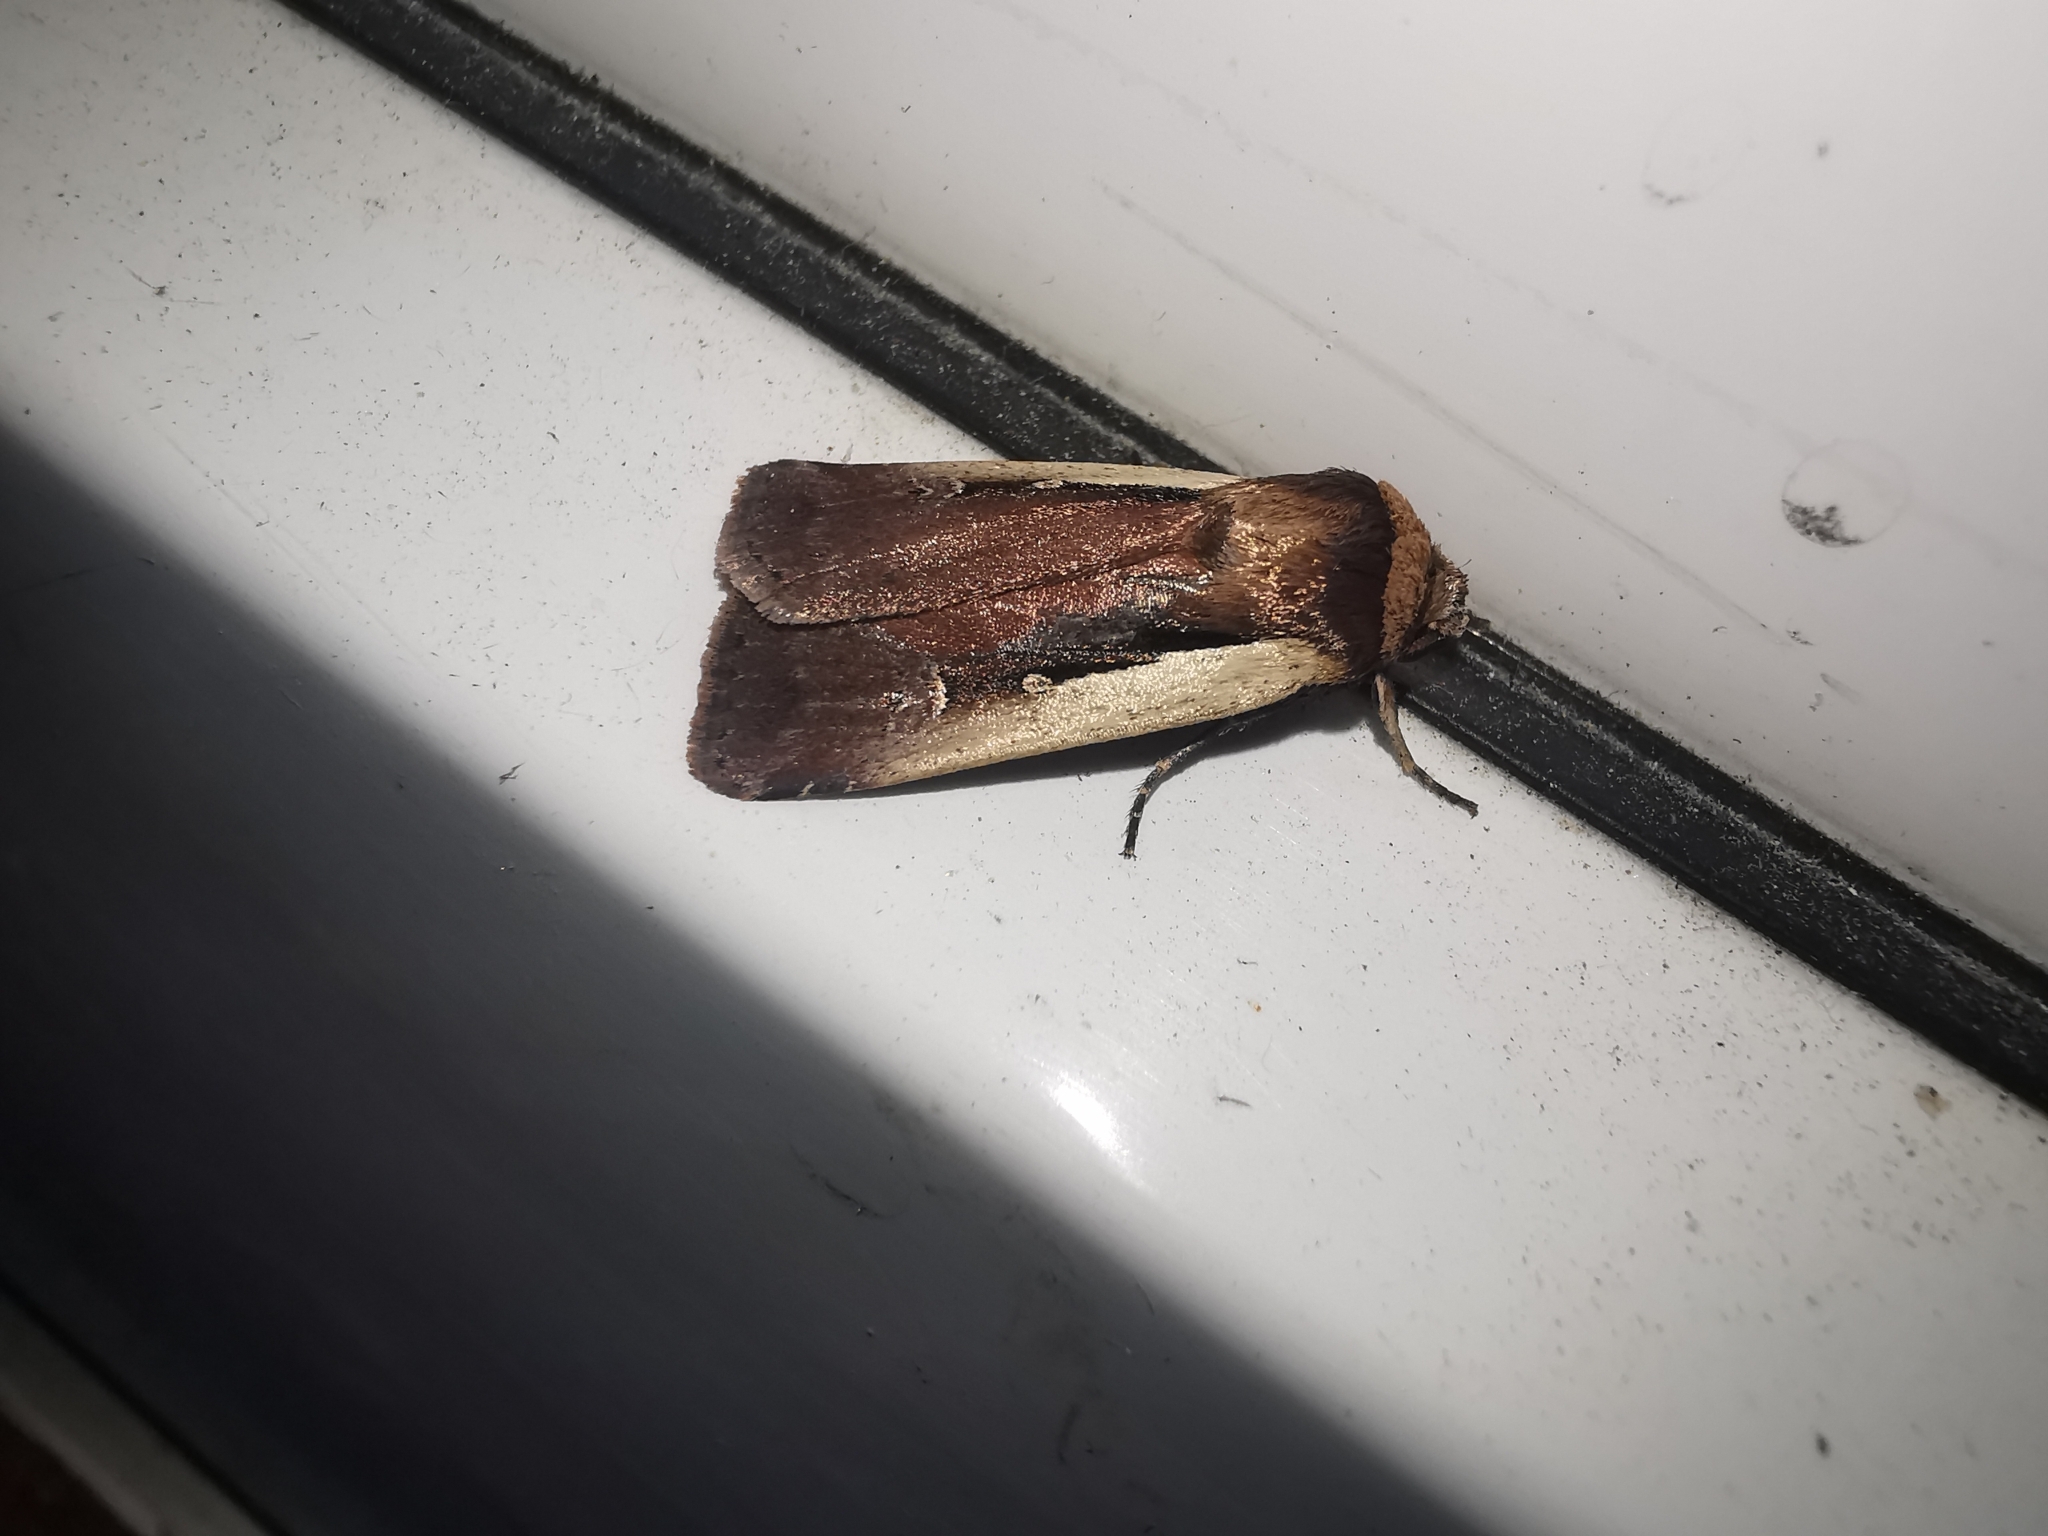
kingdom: Animalia
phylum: Arthropoda
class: Insecta
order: Lepidoptera
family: Noctuidae
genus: Ochropleura
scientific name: Ochropleura plecta
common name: Flame shoulder
